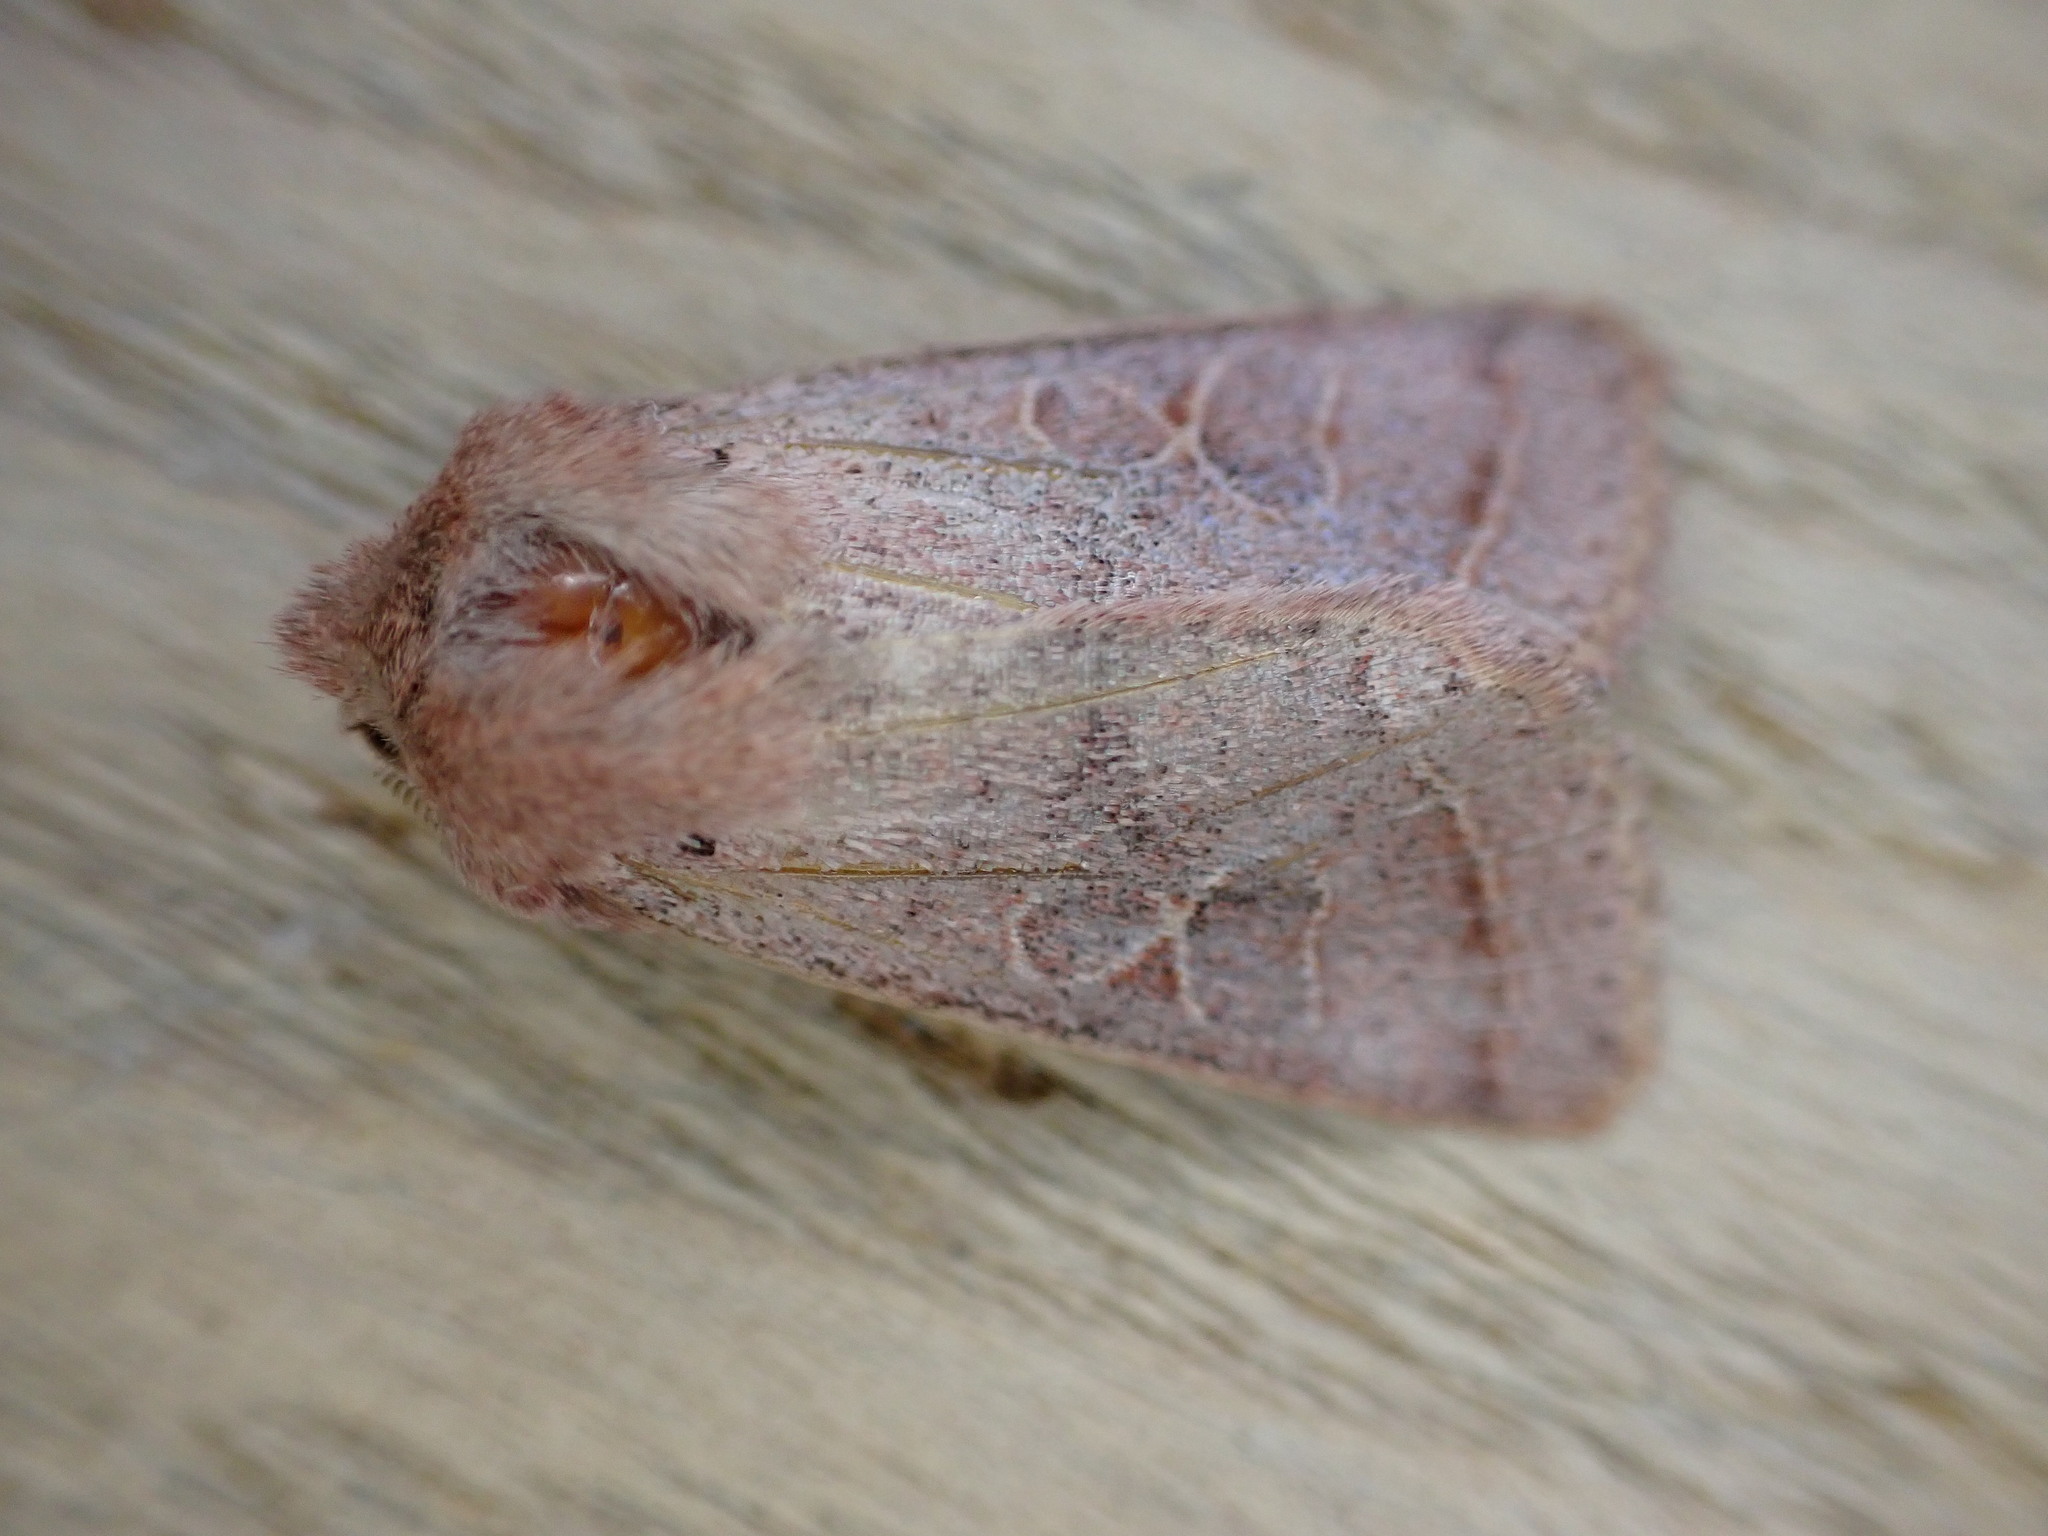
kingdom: Animalia
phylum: Arthropoda
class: Insecta
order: Lepidoptera
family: Noctuidae
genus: Orthosia
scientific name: Orthosia cerasi
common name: Common quaker
